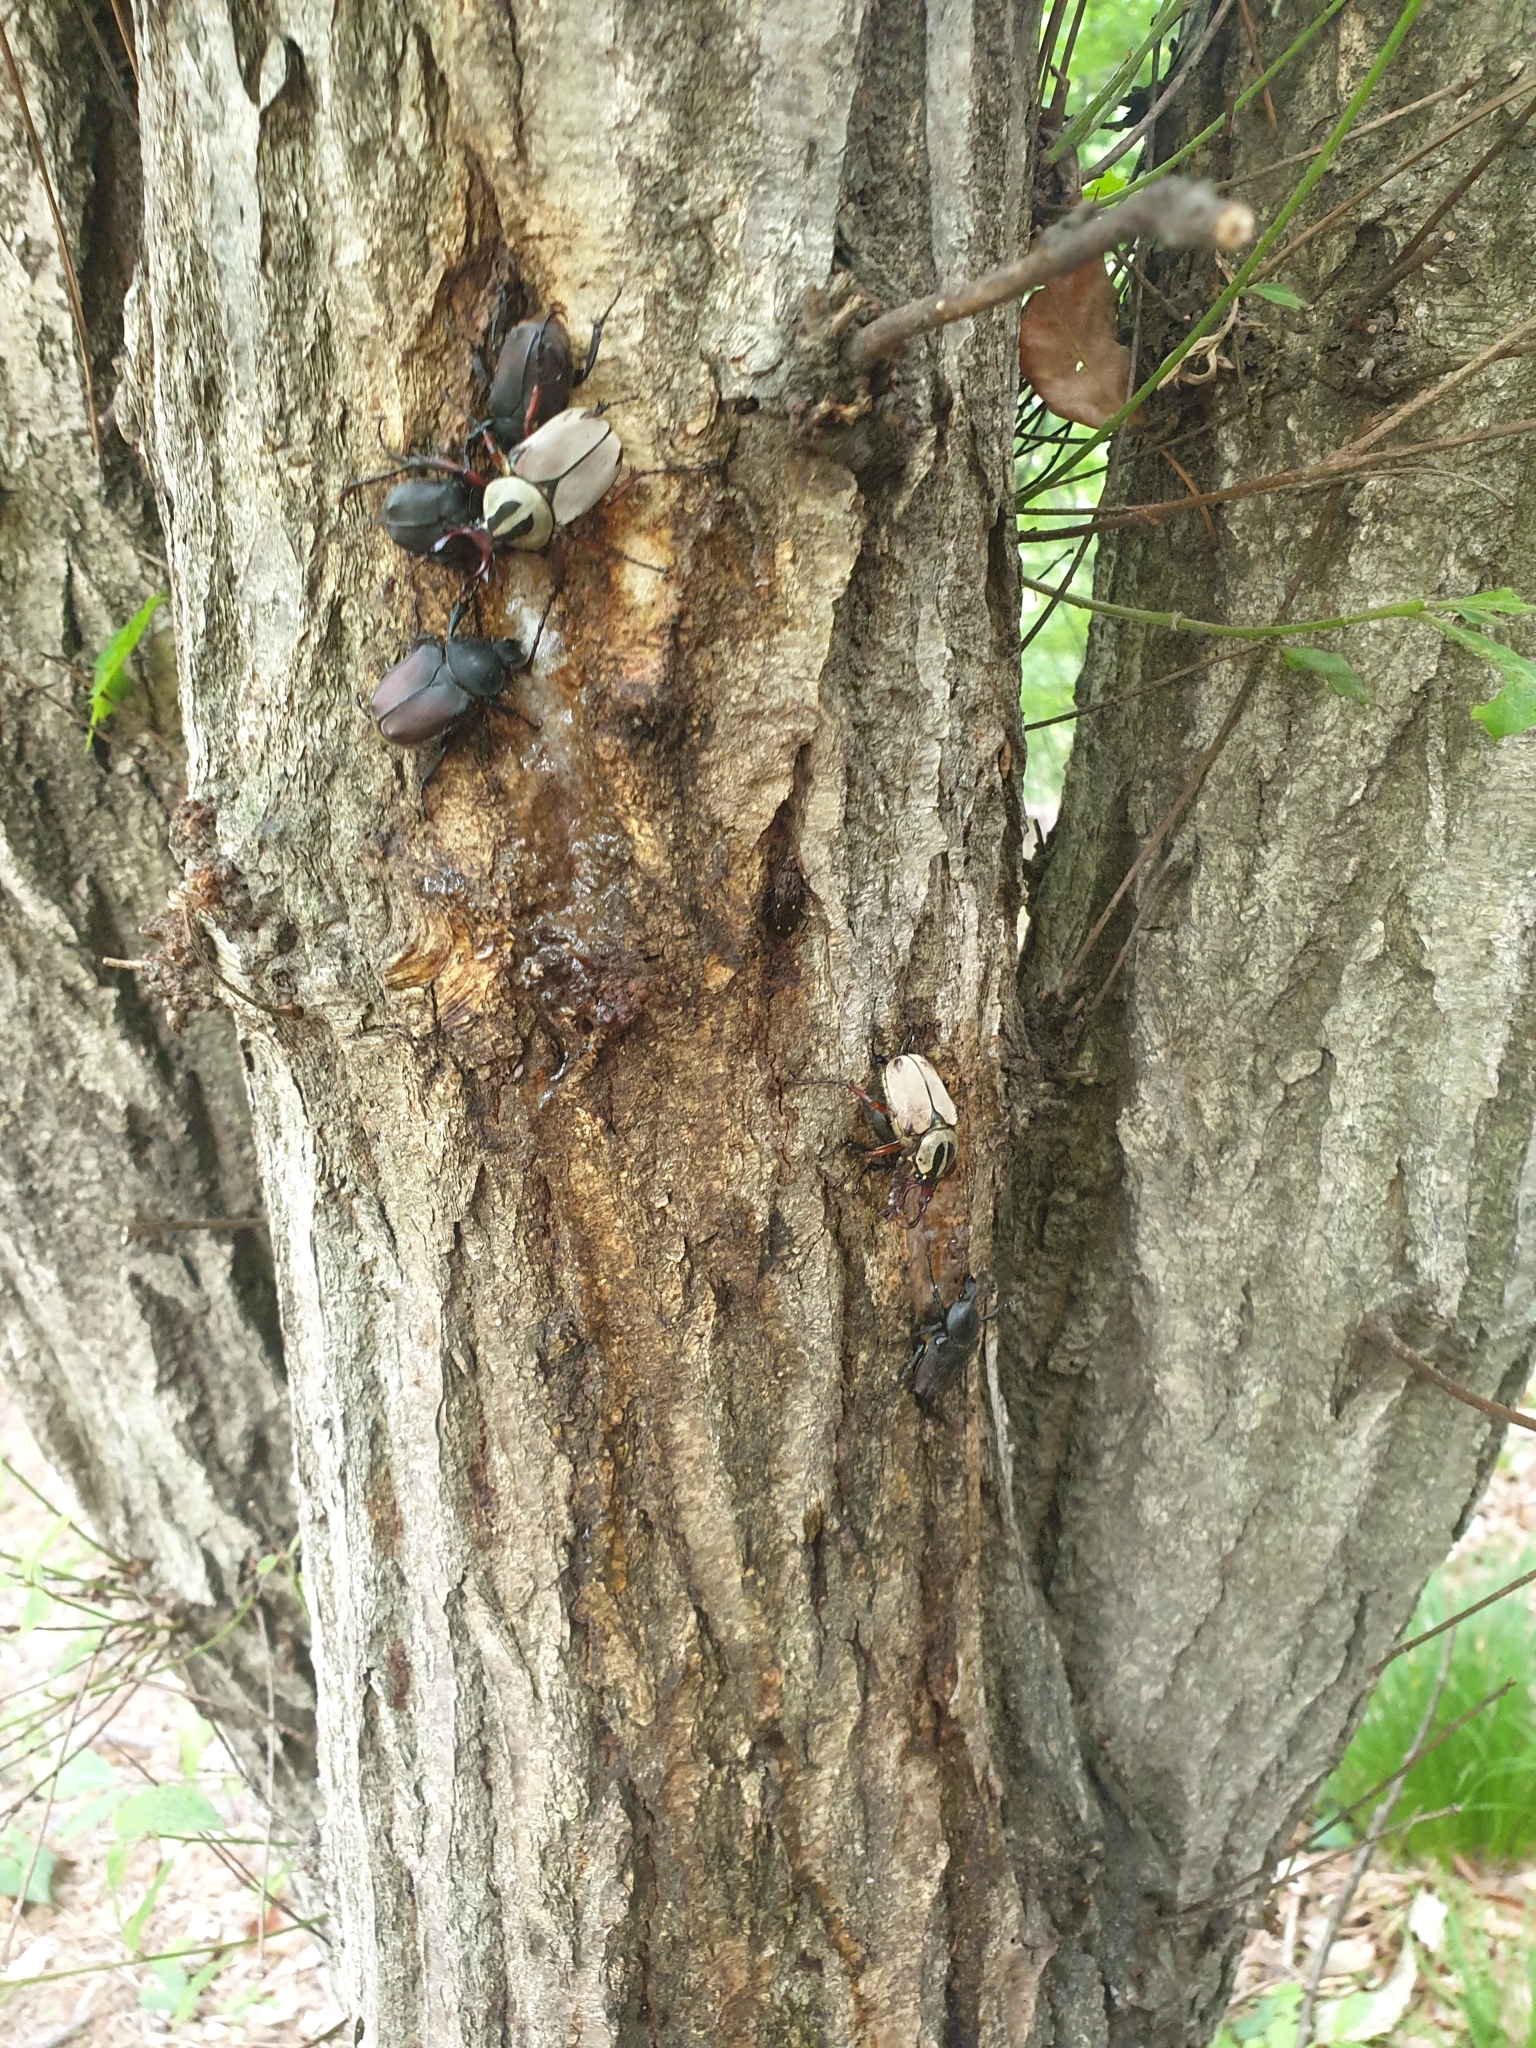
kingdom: Animalia
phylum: Arthropoda
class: Insecta
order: Coleoptera
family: Scarabaeidae
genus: Dicronocephalus
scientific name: Dicronocephalus adamsi
